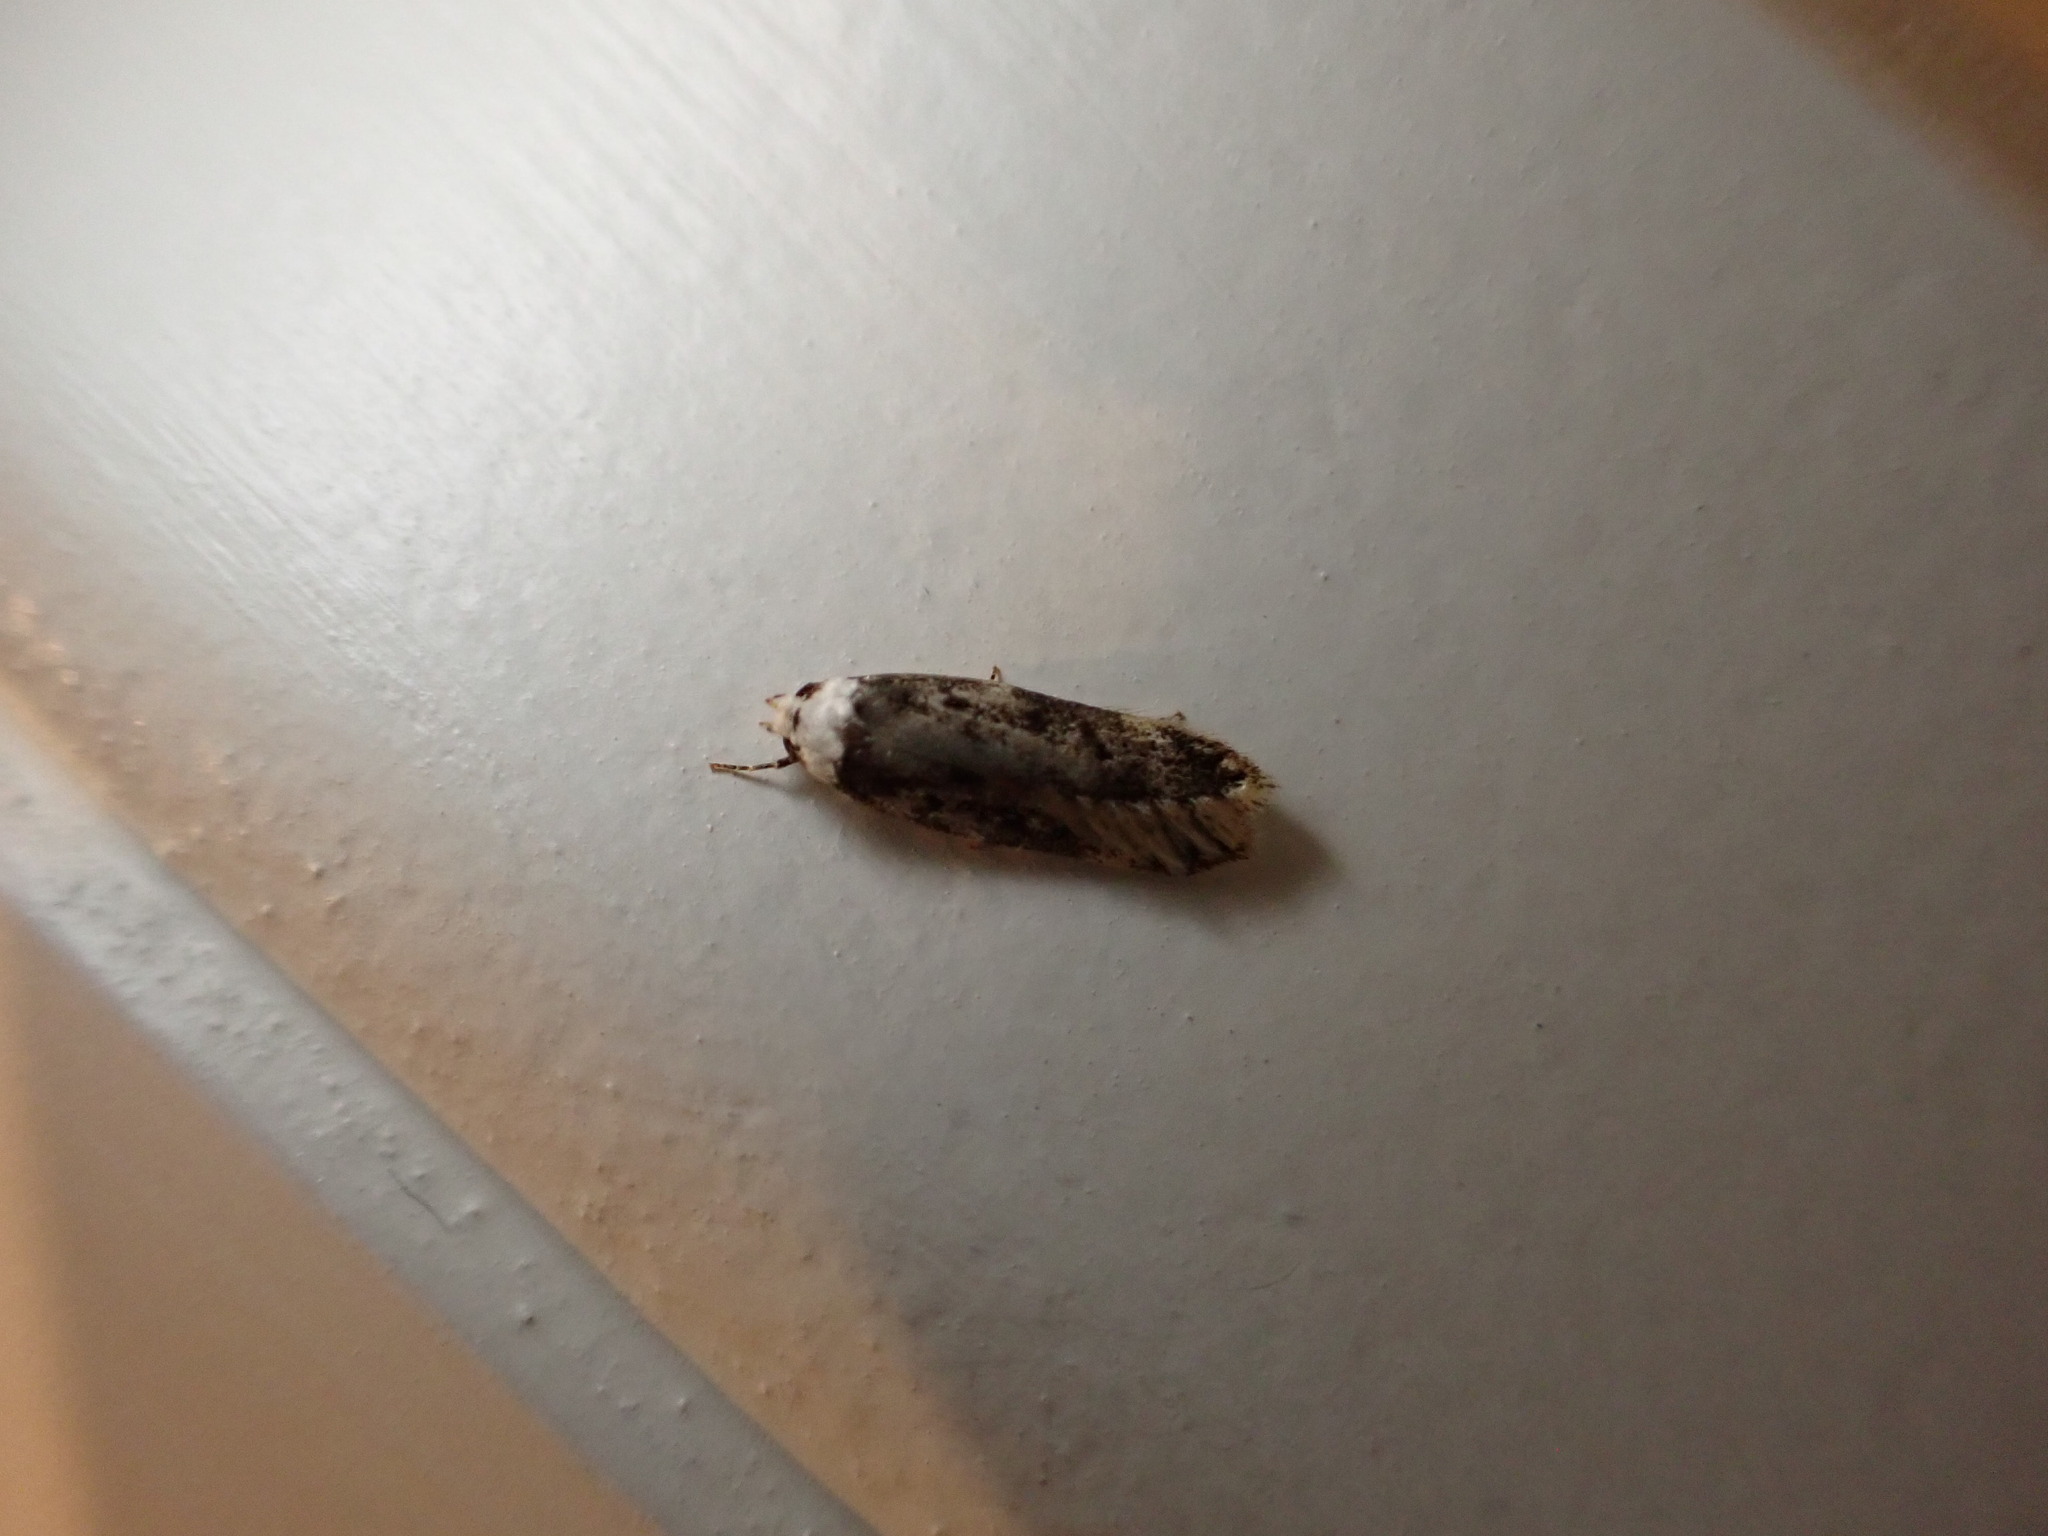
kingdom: Animalia
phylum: Arthropoda
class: Insecta
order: Lepidoptera
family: Oecophoridae
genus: Endrosis
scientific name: Endrosis sarcitrella
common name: White-shouldered house moth
